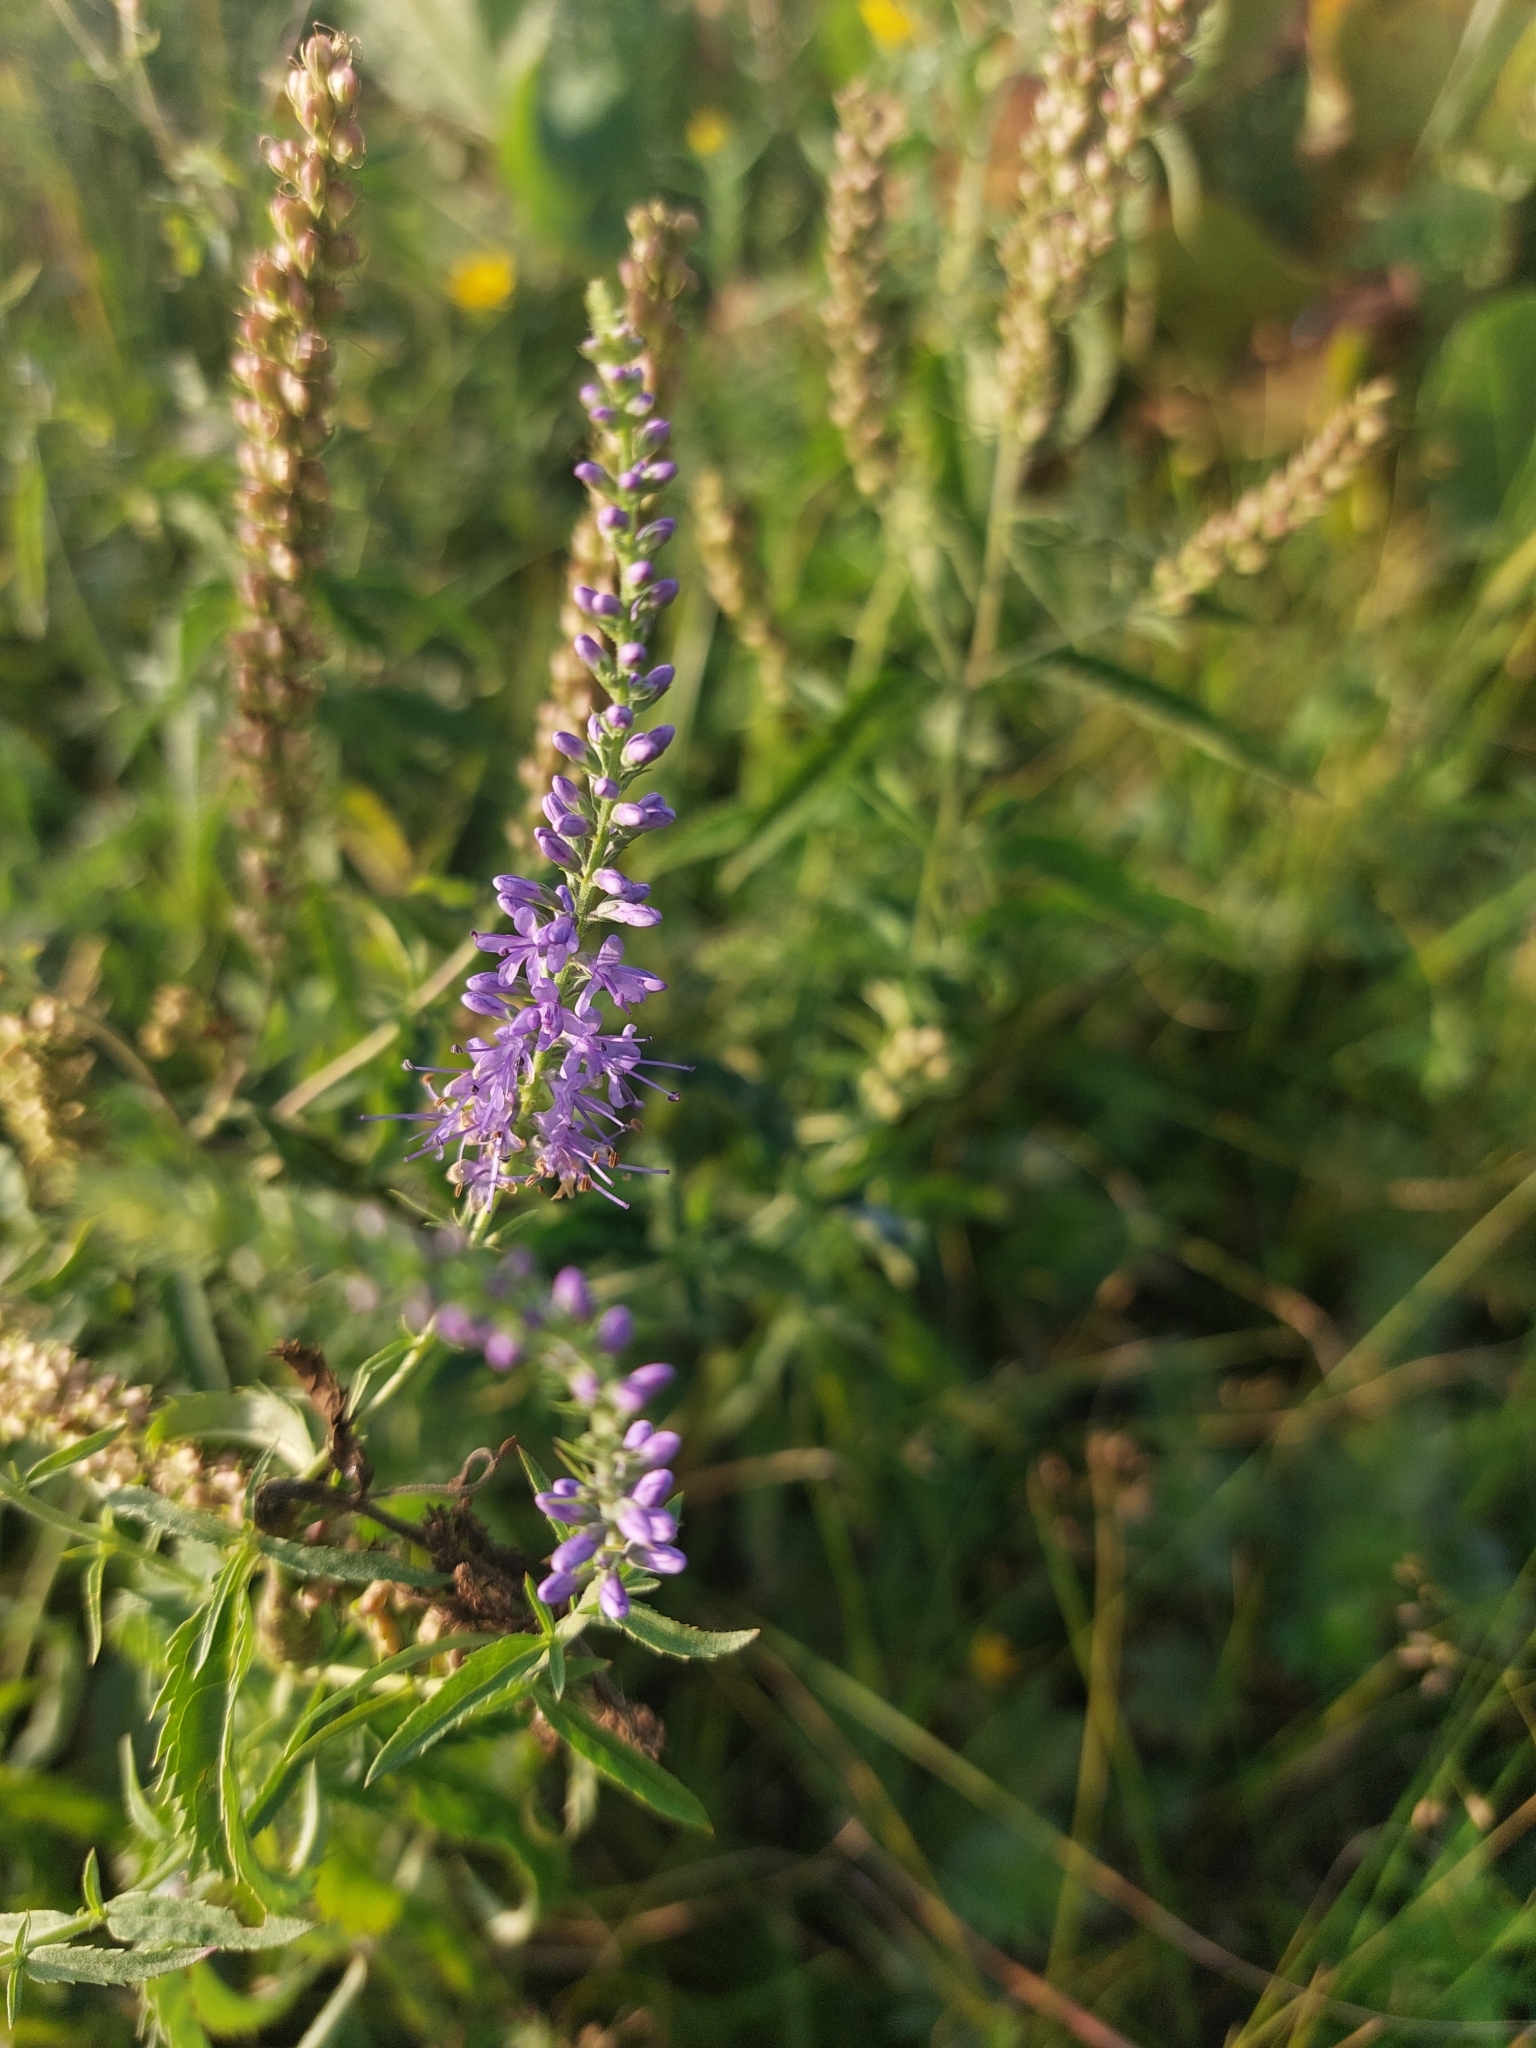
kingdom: Plantae
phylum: Tracheophyta
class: Magnoliopsida
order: Lamiales
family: Plantaginaceae
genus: Veronica
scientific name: Veronica longifolia
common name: Garden speedwell
